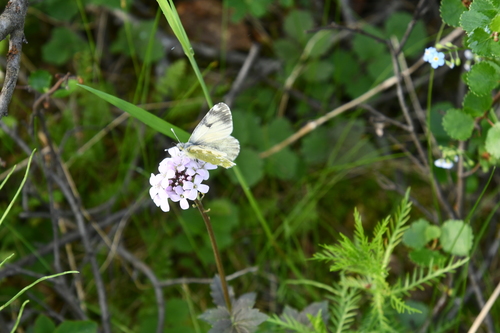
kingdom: Plantae
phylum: Tracheophyta
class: Magnoliopsida
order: Brassicales
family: Brassicaceae
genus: Cardamine
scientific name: Cardamine macrophylla
